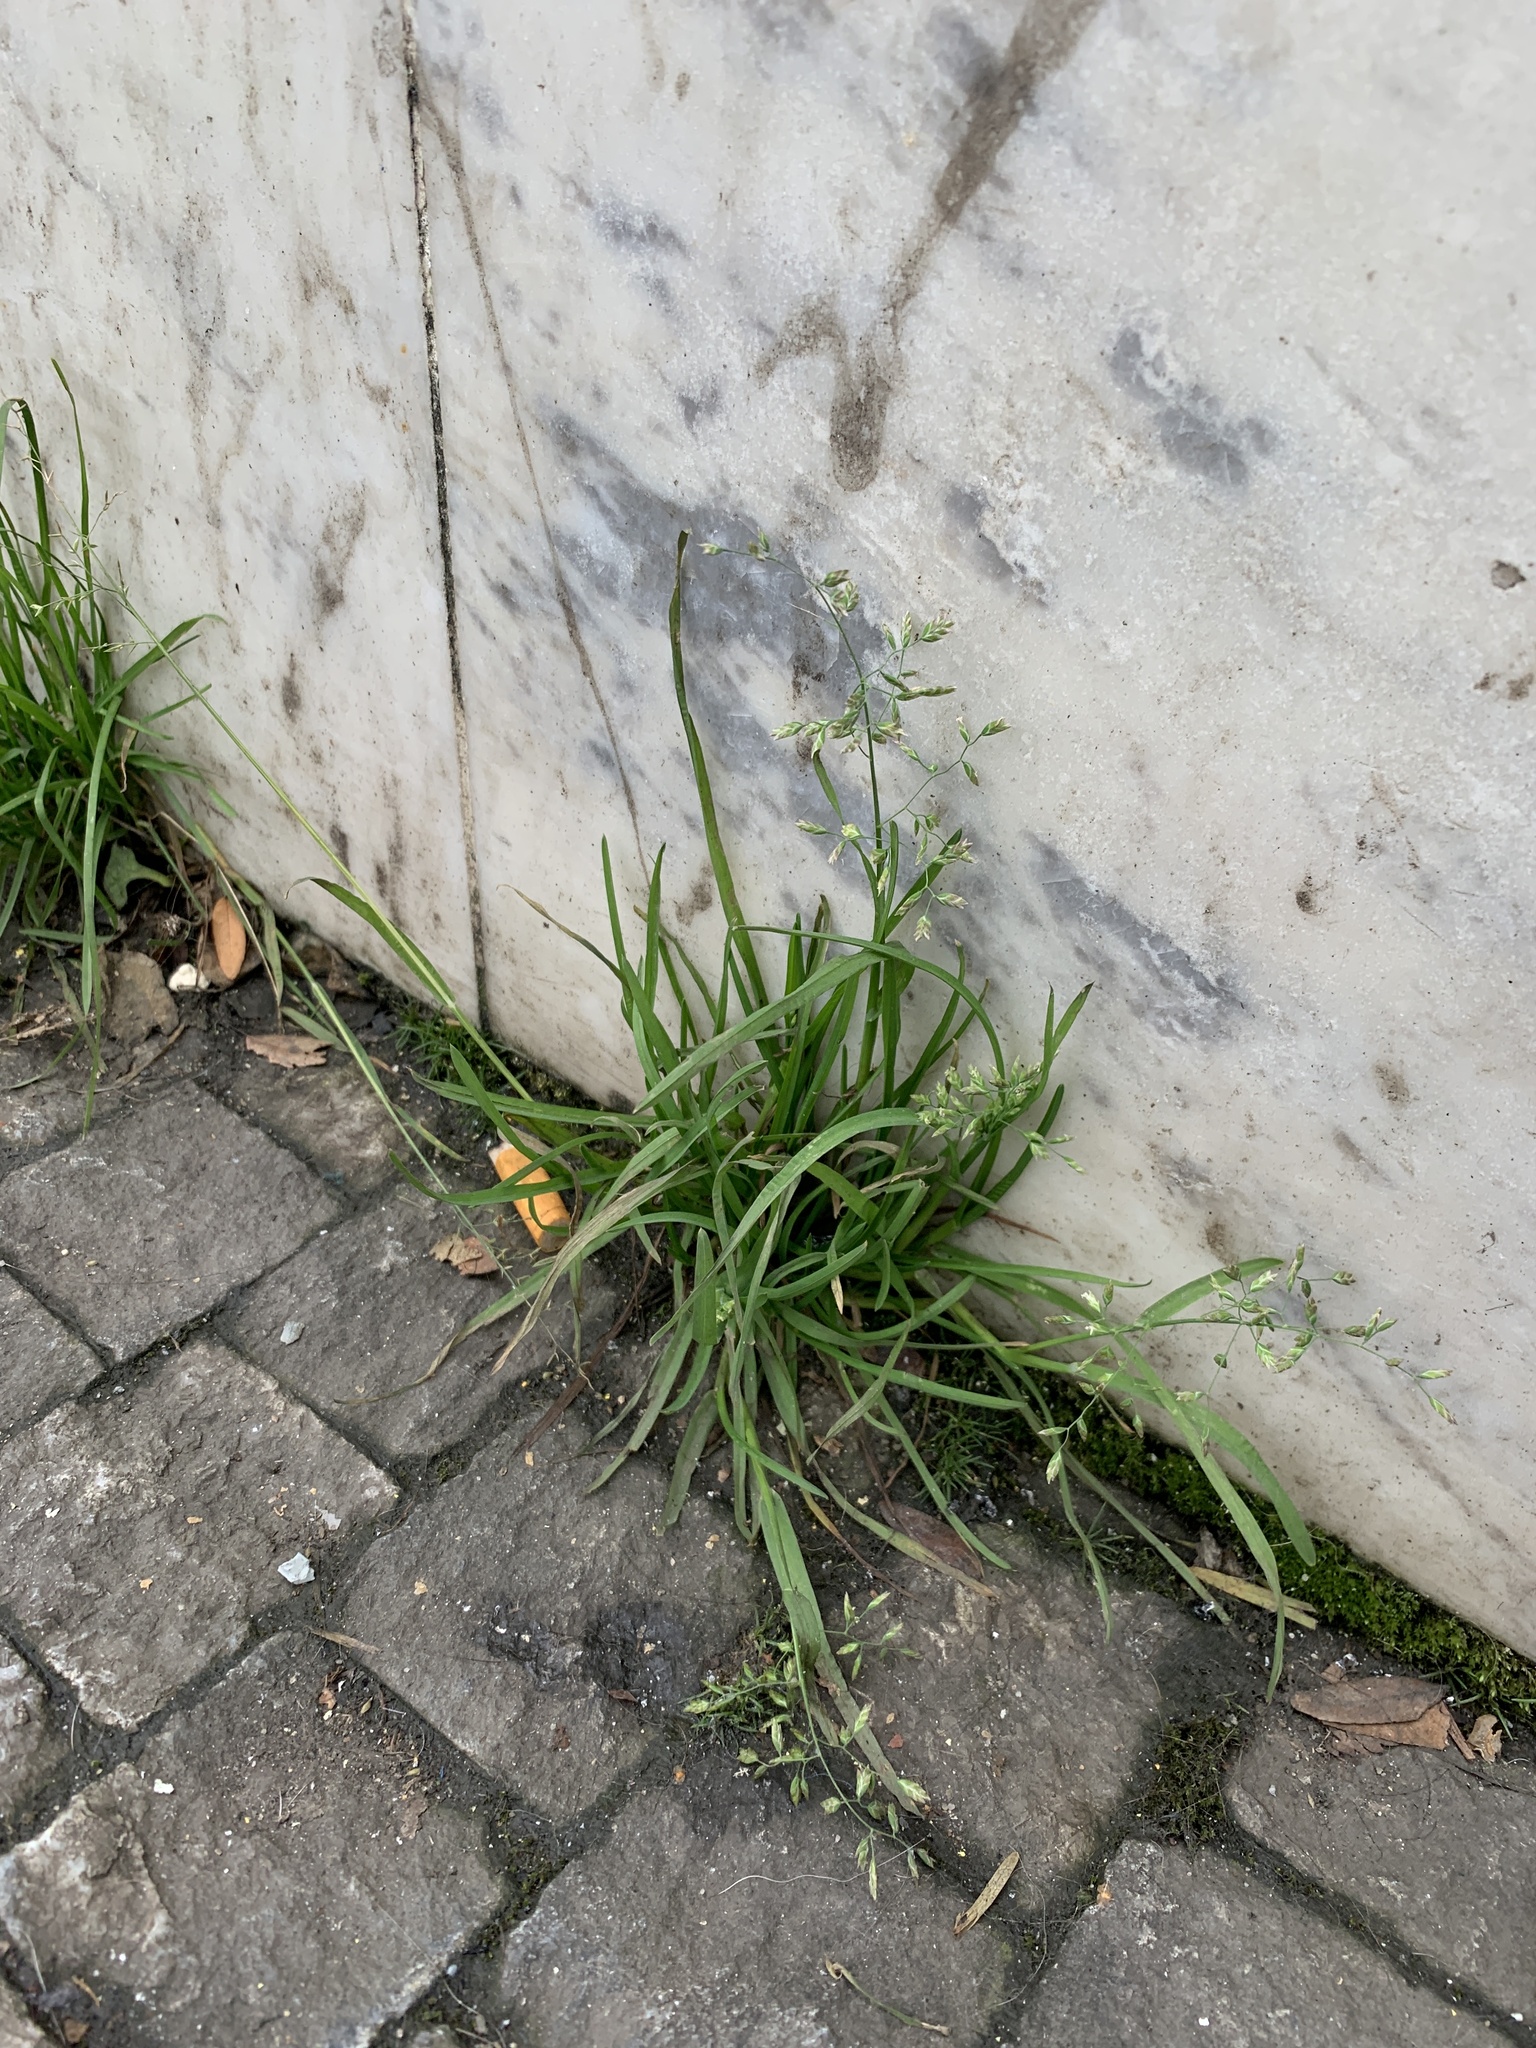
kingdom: Plantae
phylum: Tracheophyta
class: Liliopsida
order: Poales
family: Poaceae
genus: Poa
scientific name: Poa annua
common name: Annual bluegrass
